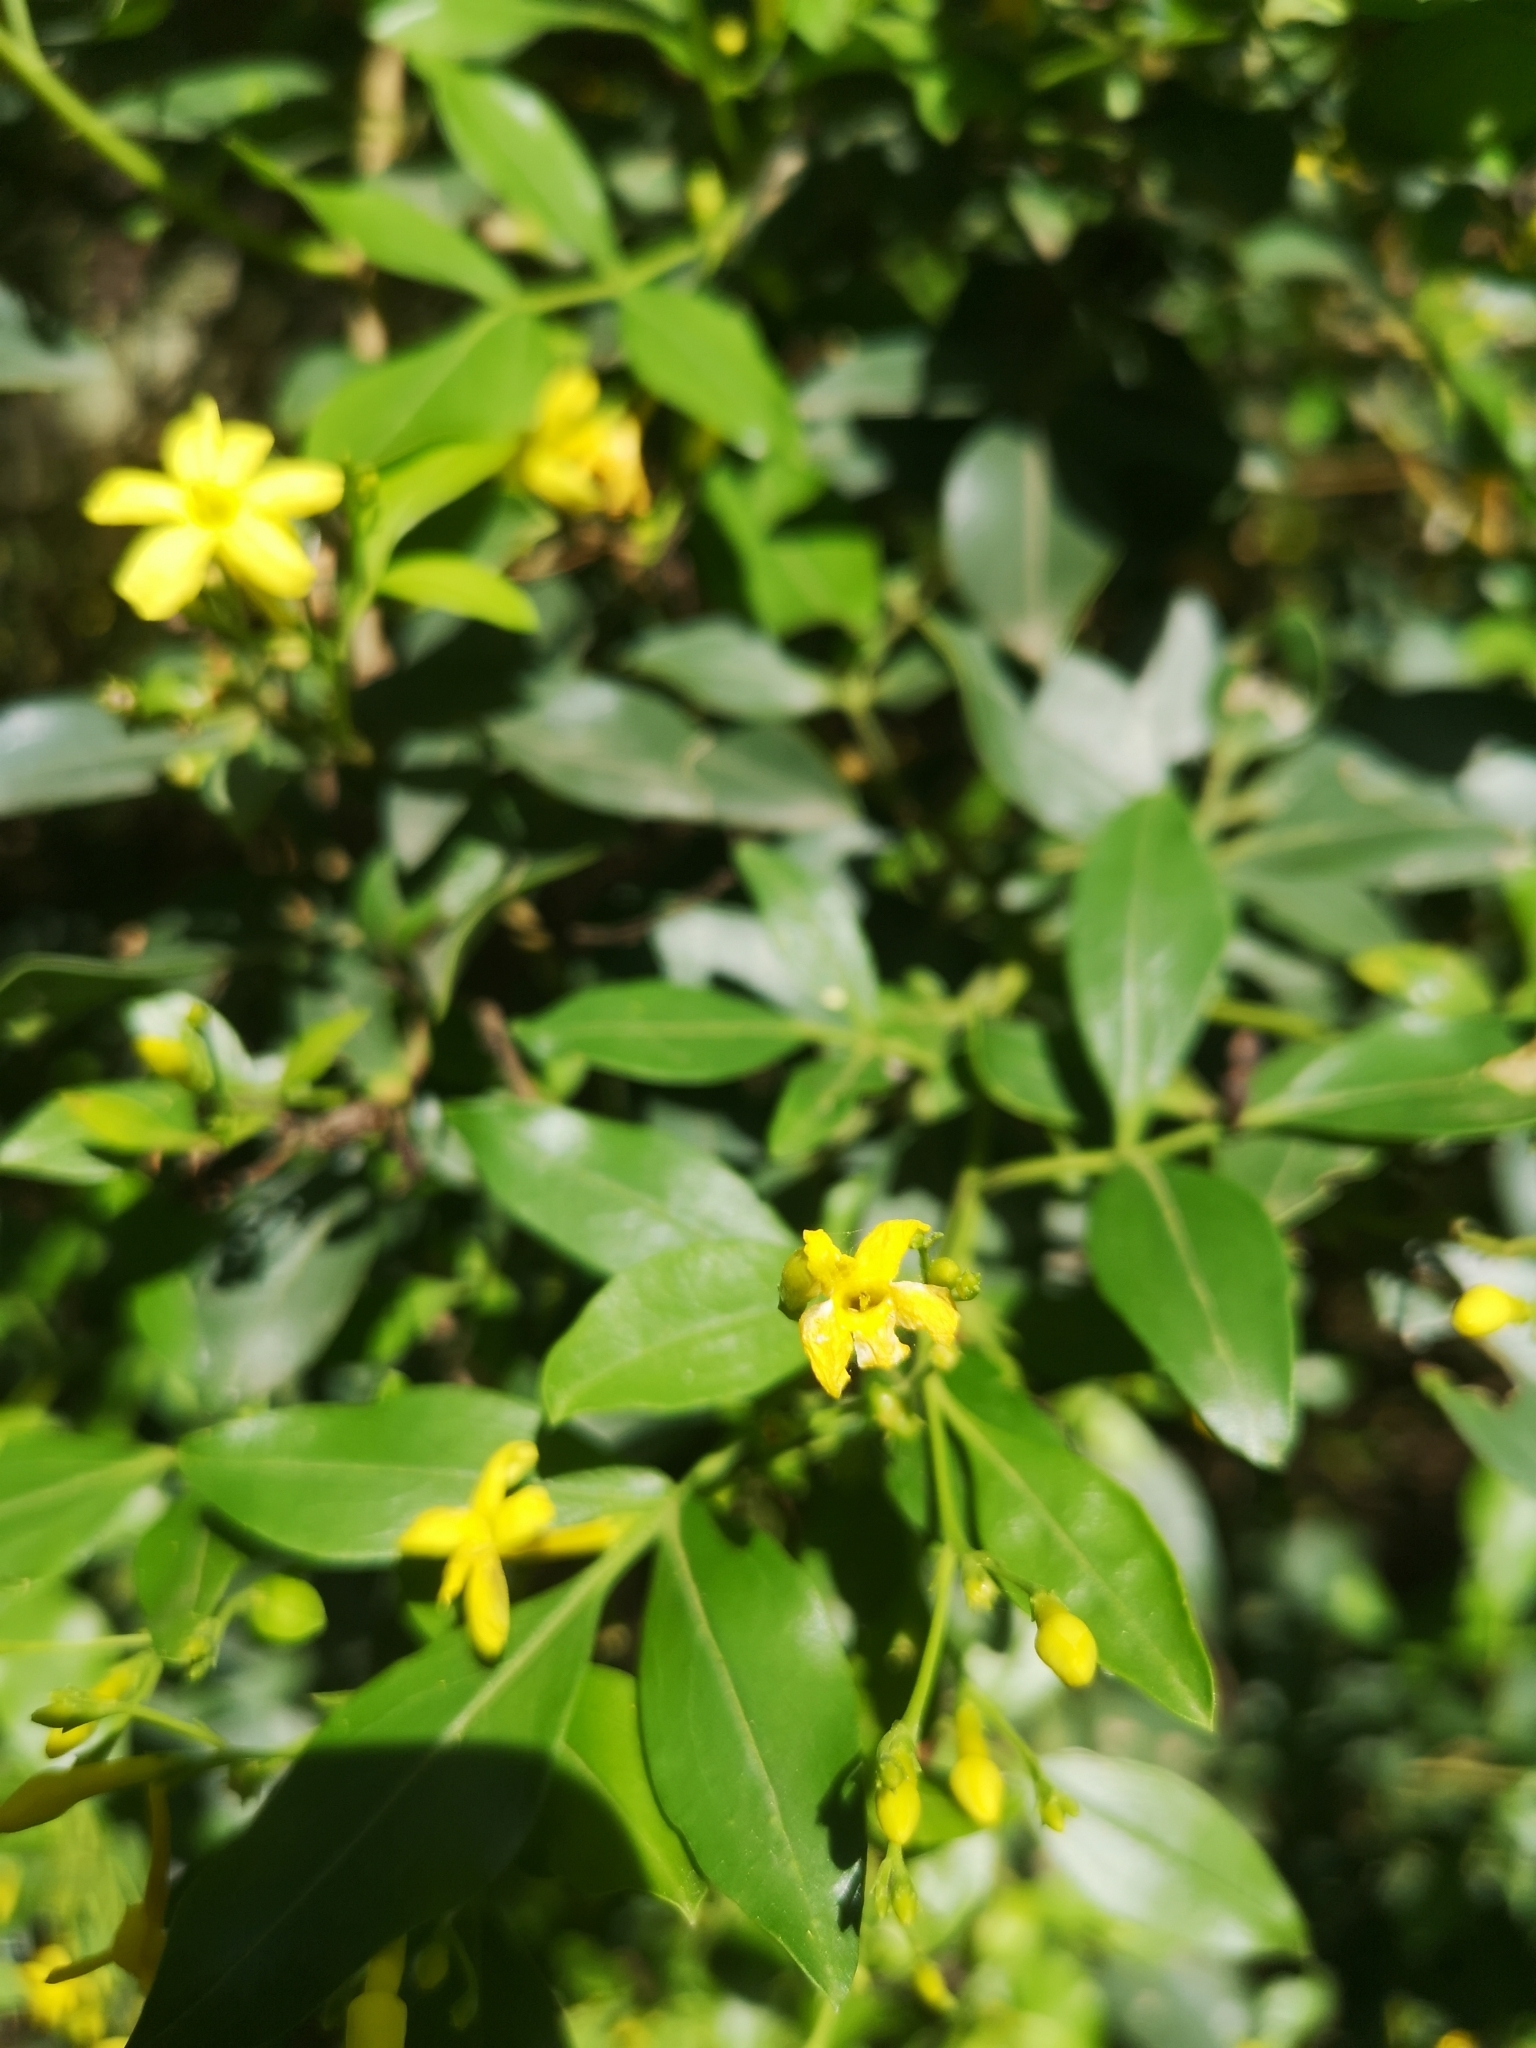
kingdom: Plantae
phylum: Tracheophyta
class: Magnoliopsida
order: Lamiales
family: Oleaceae
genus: Chrysojasminum
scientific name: Chrysojasminum odoratissimum
